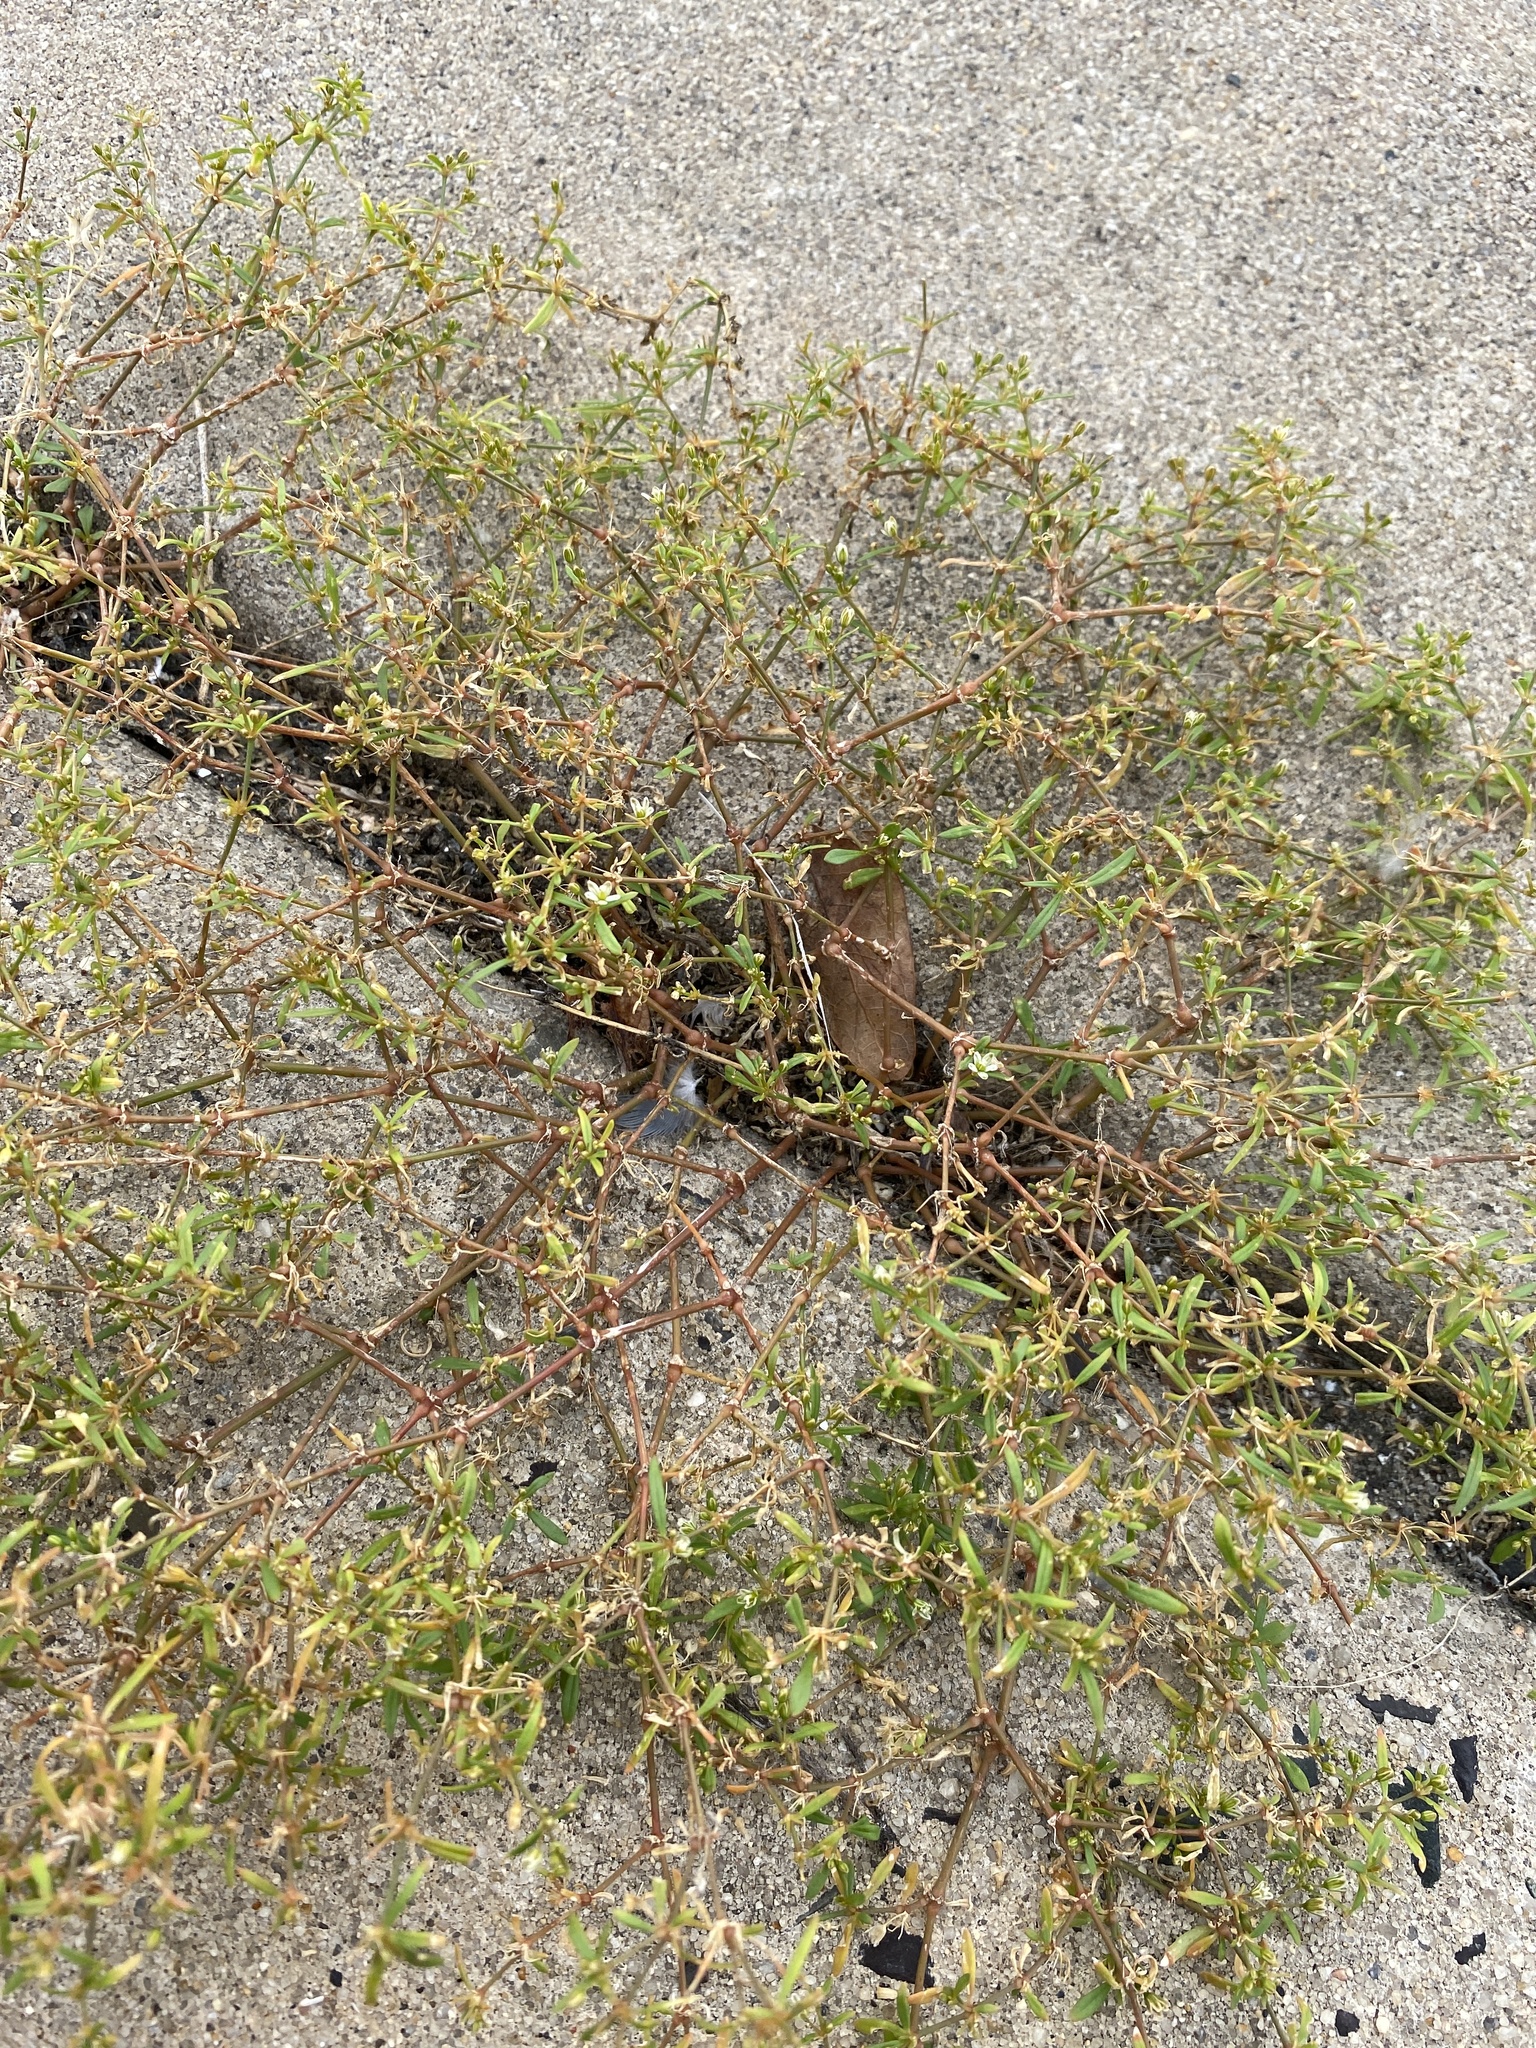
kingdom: Plantae
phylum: Tracheophyta
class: Magnoliopsida
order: Caryophyllales
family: Molluginaceae
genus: Mollugo
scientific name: Mollugo verticillata
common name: Green carpetweed
